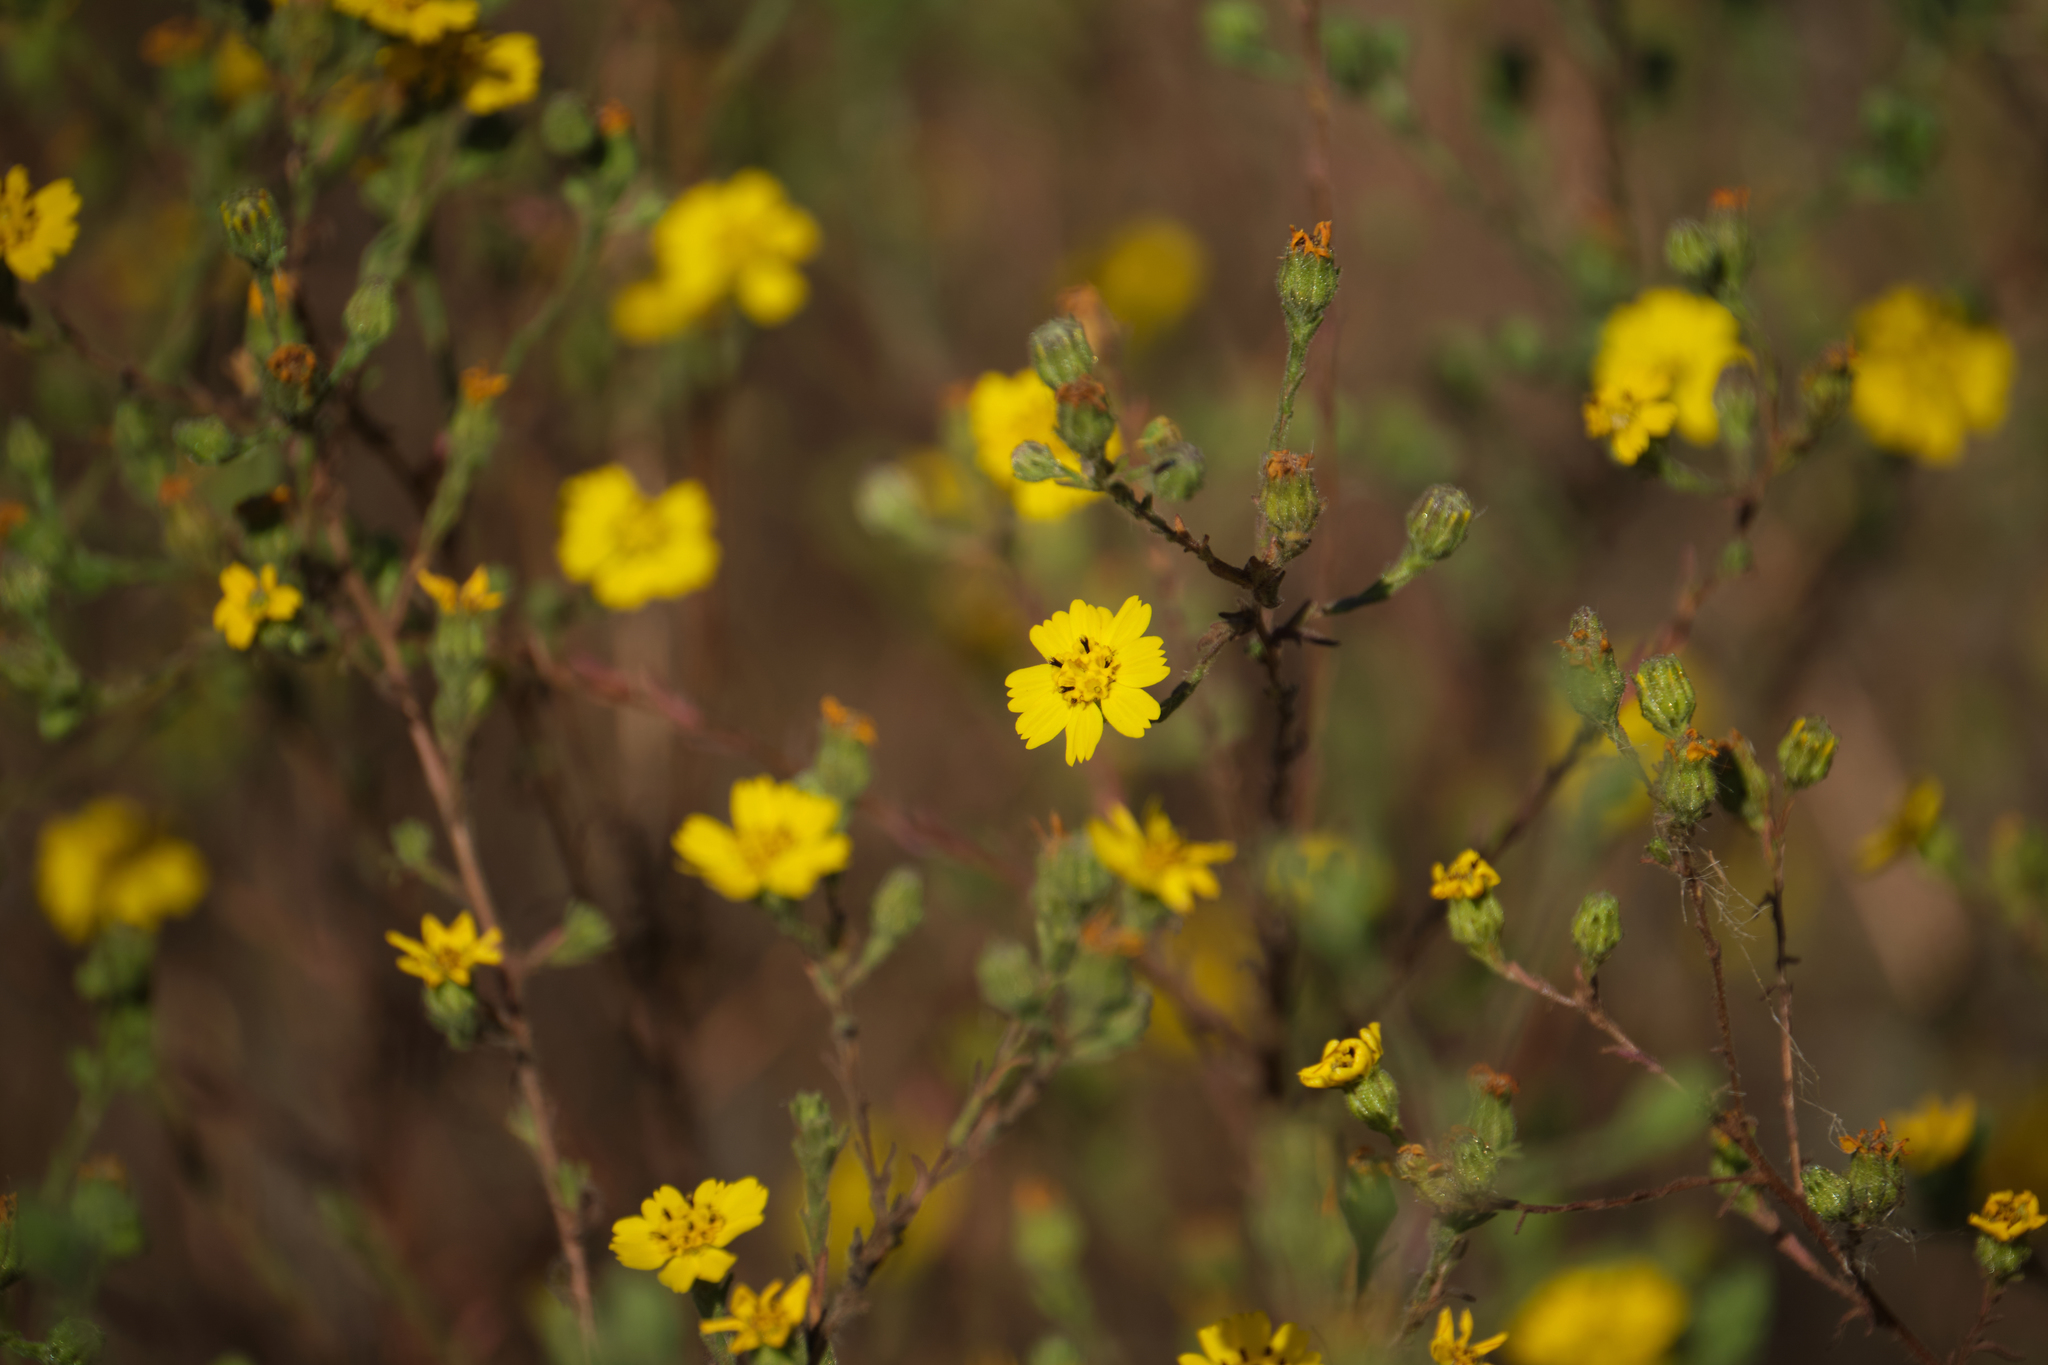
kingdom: Plantae
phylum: Tracheophyta
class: Magnoliopsida
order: Asterales
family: Asteraceae
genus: Deinandra
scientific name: Deinandra paniculata
